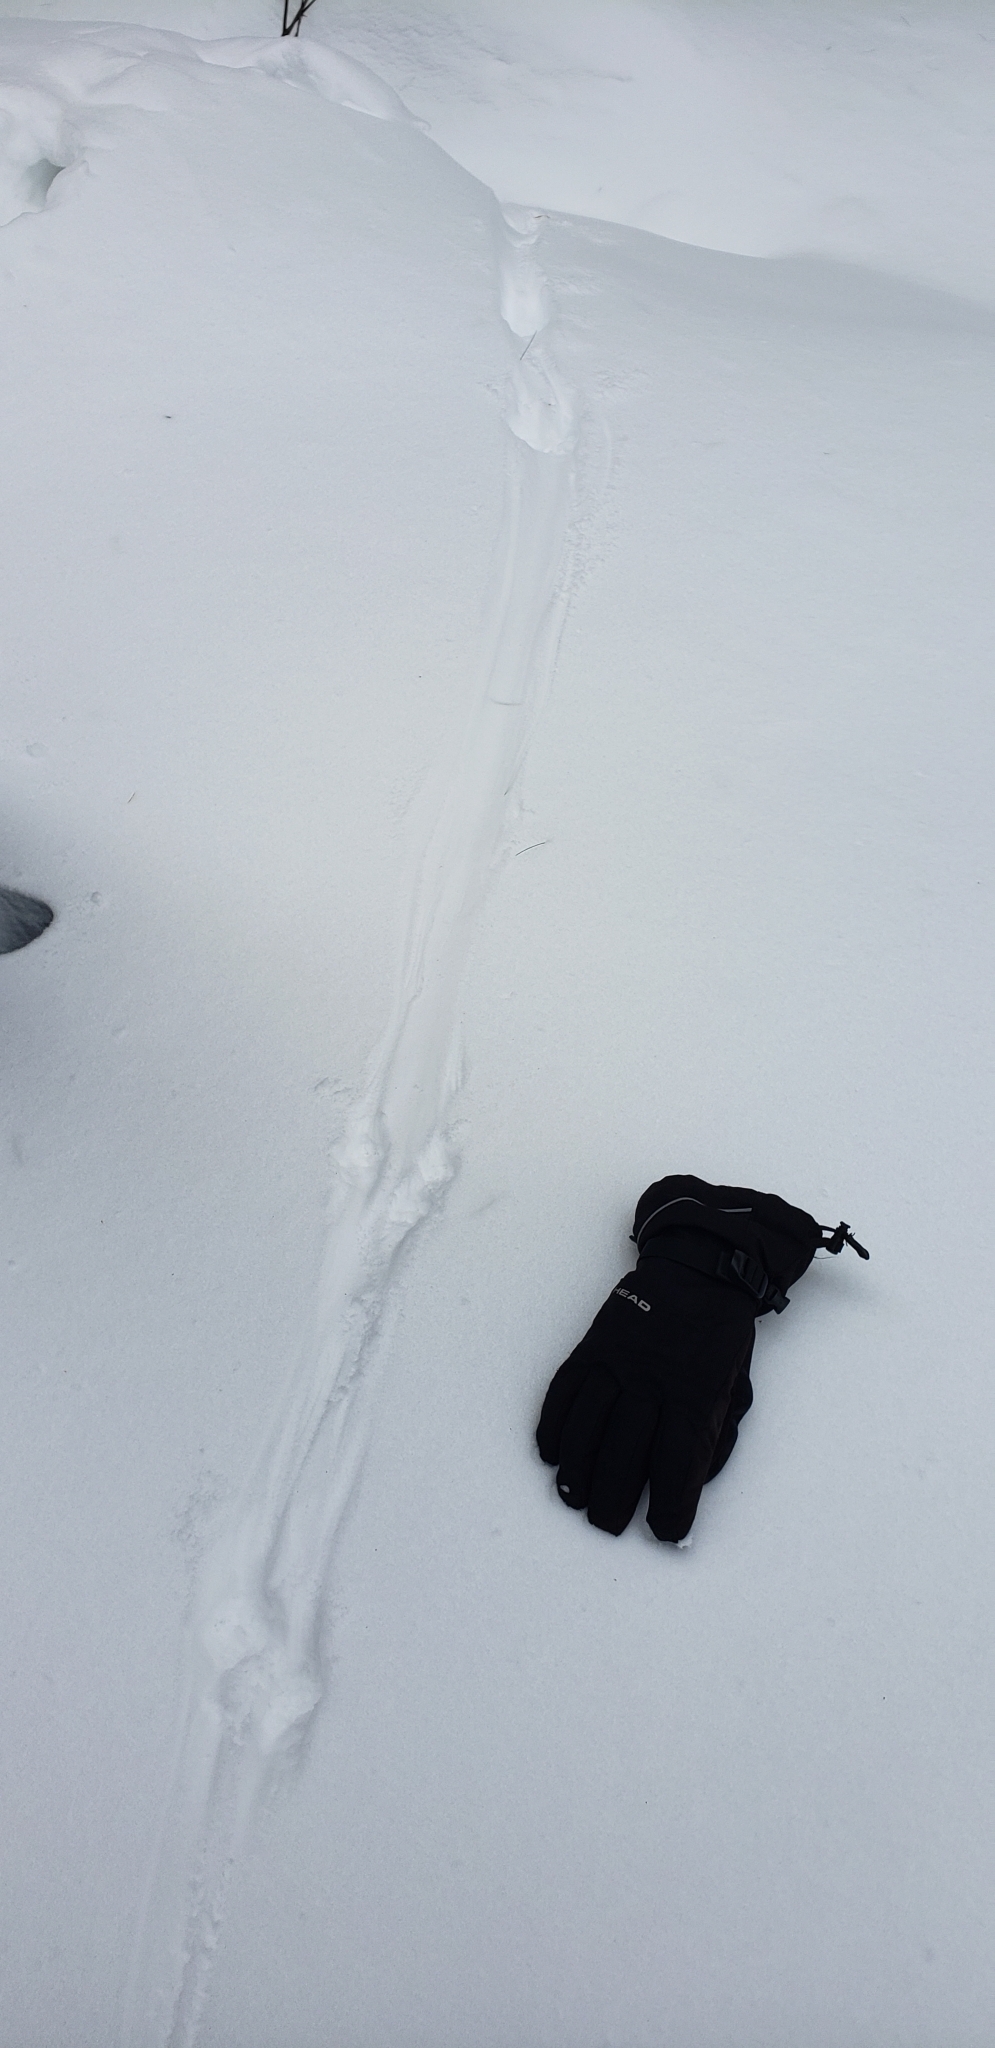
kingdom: Animalia
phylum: Chordata
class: Mammalia
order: Carnivora
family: Mustelidae
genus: Mustela
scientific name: Mustela
